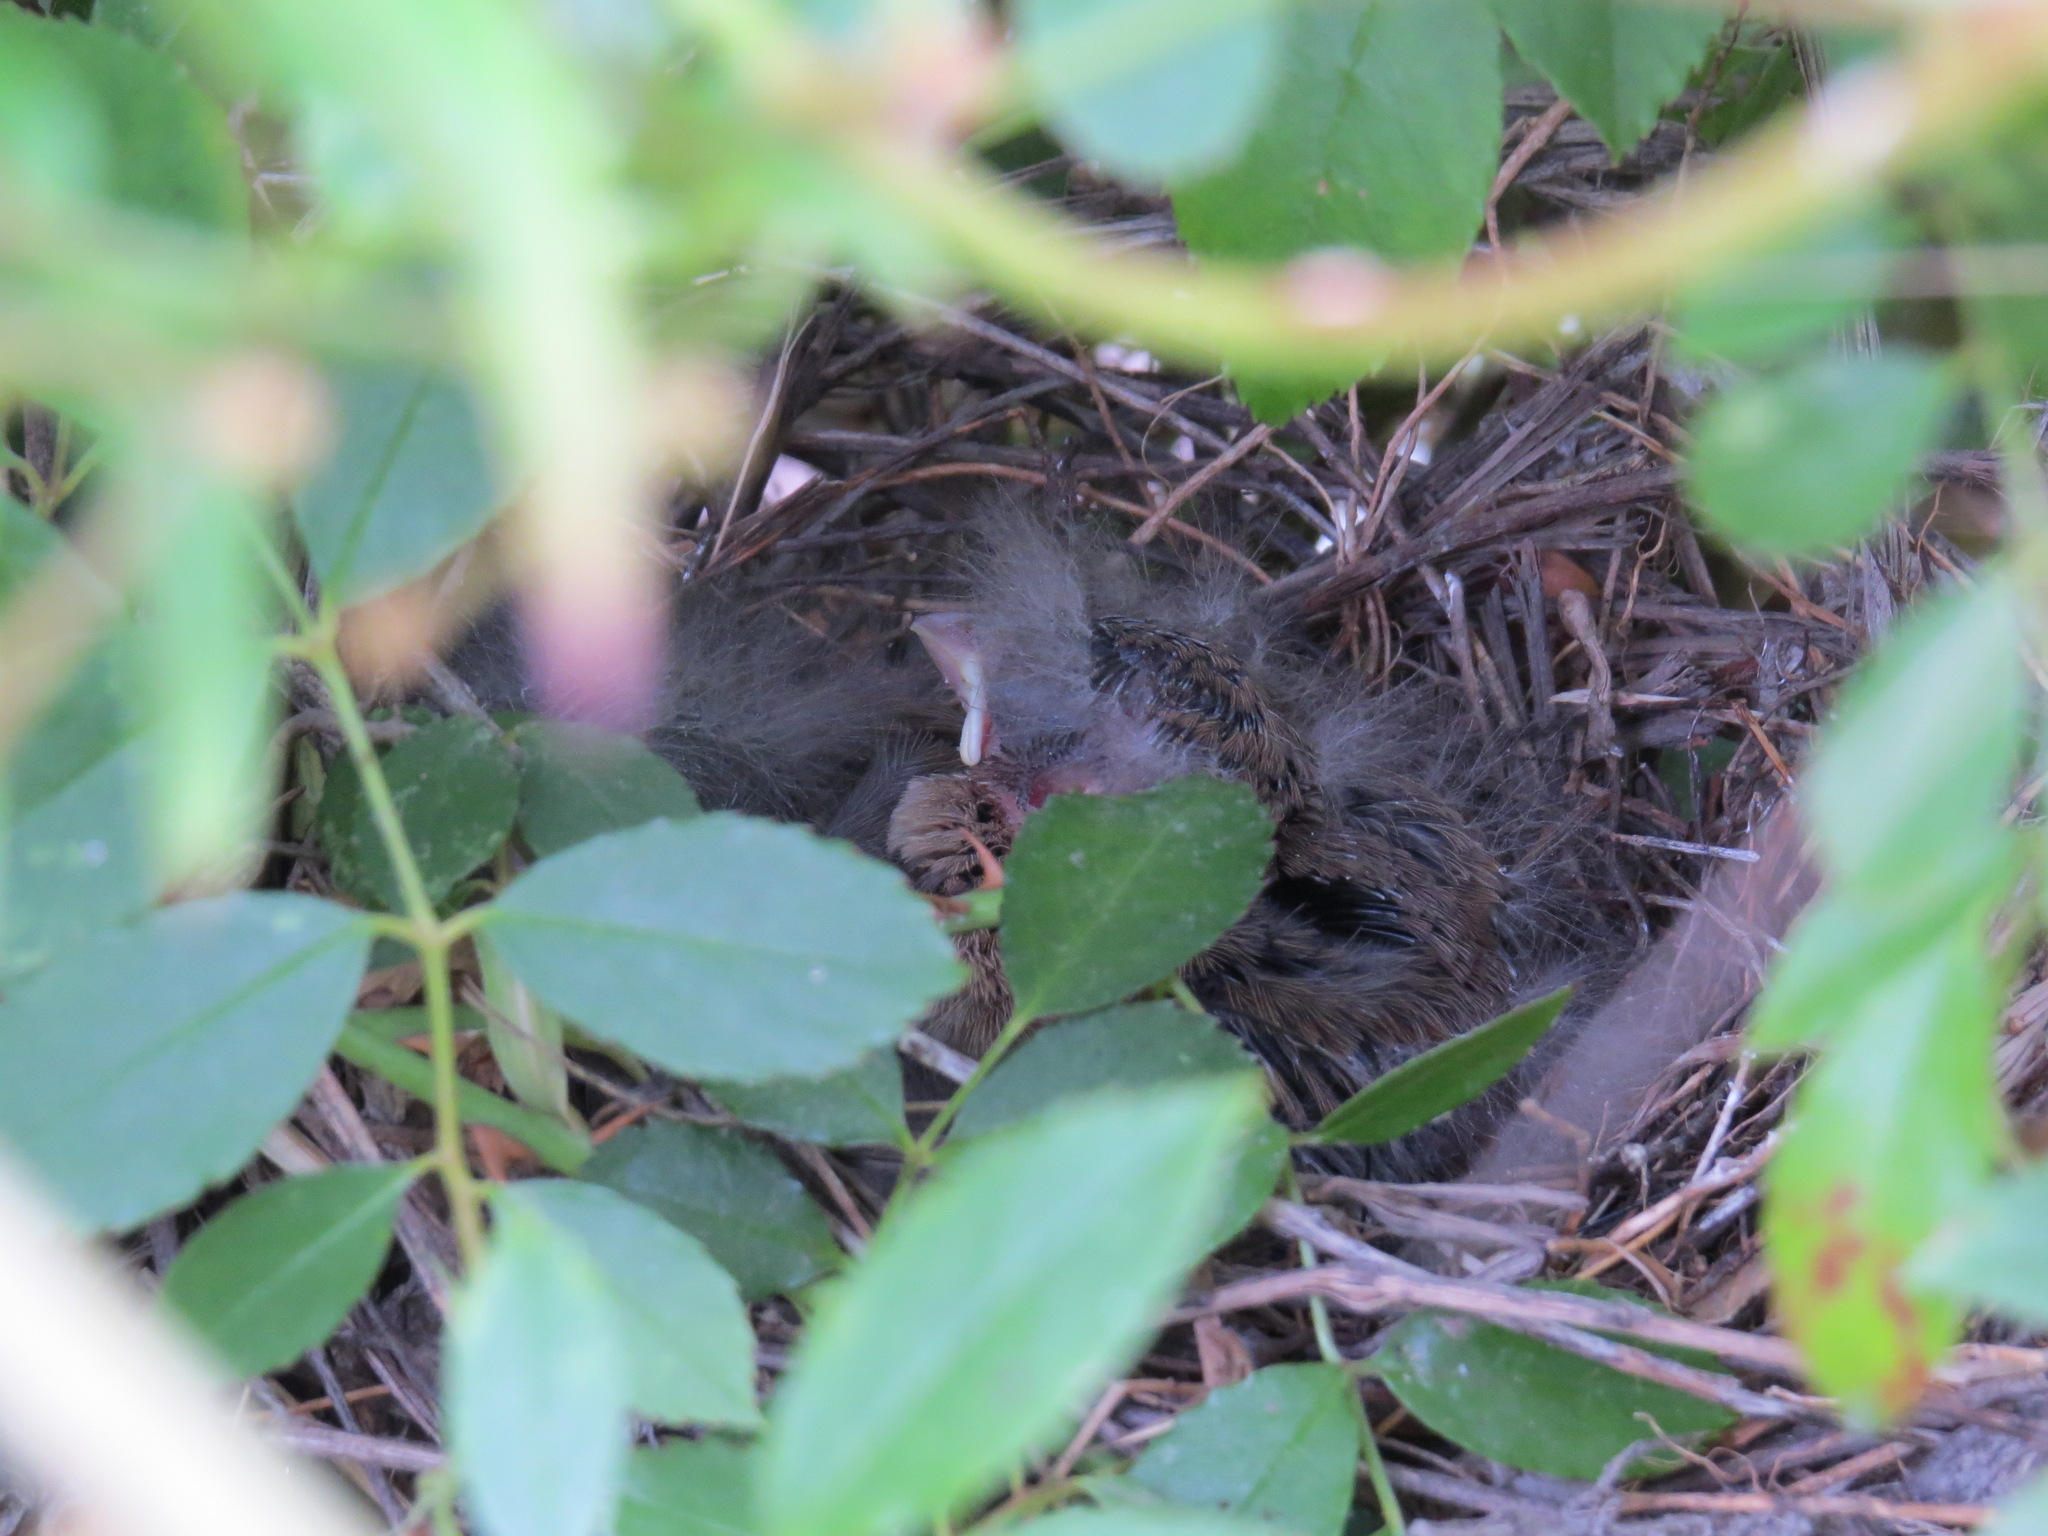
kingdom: Animalia
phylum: Chordata
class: Aves
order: Passeriformes
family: Passerellidae
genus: Melozone
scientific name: Melozone crissalis
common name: California towhee
